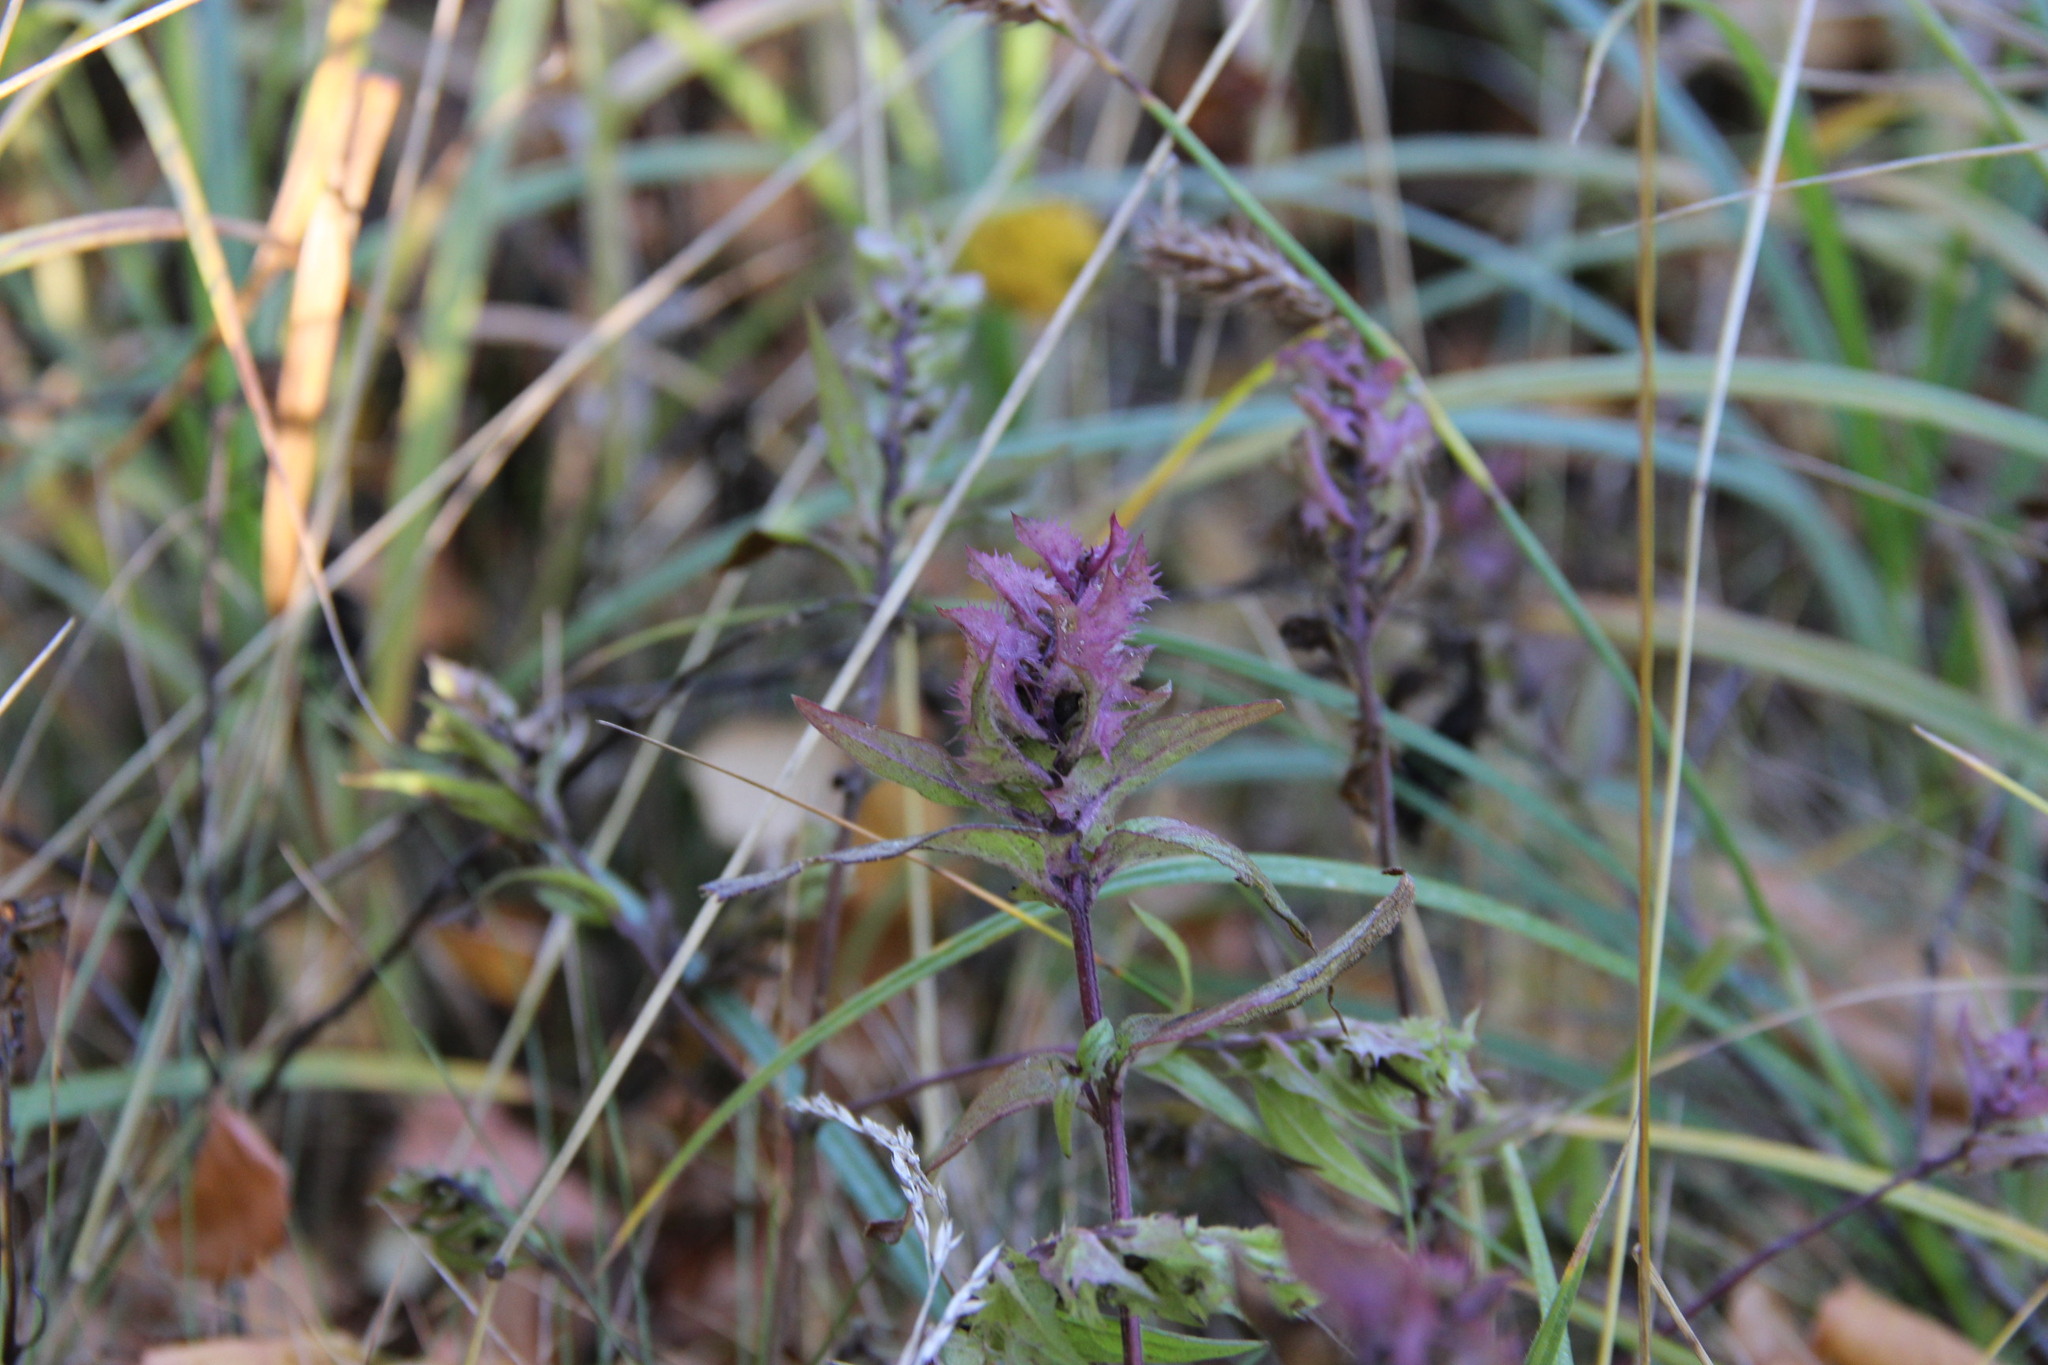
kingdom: Plantae
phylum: Tracheophyta
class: Magnoliopsida
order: Lamiales
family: Orobanchaceae
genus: Melampyrum
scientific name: Melampyrum nemorosum
